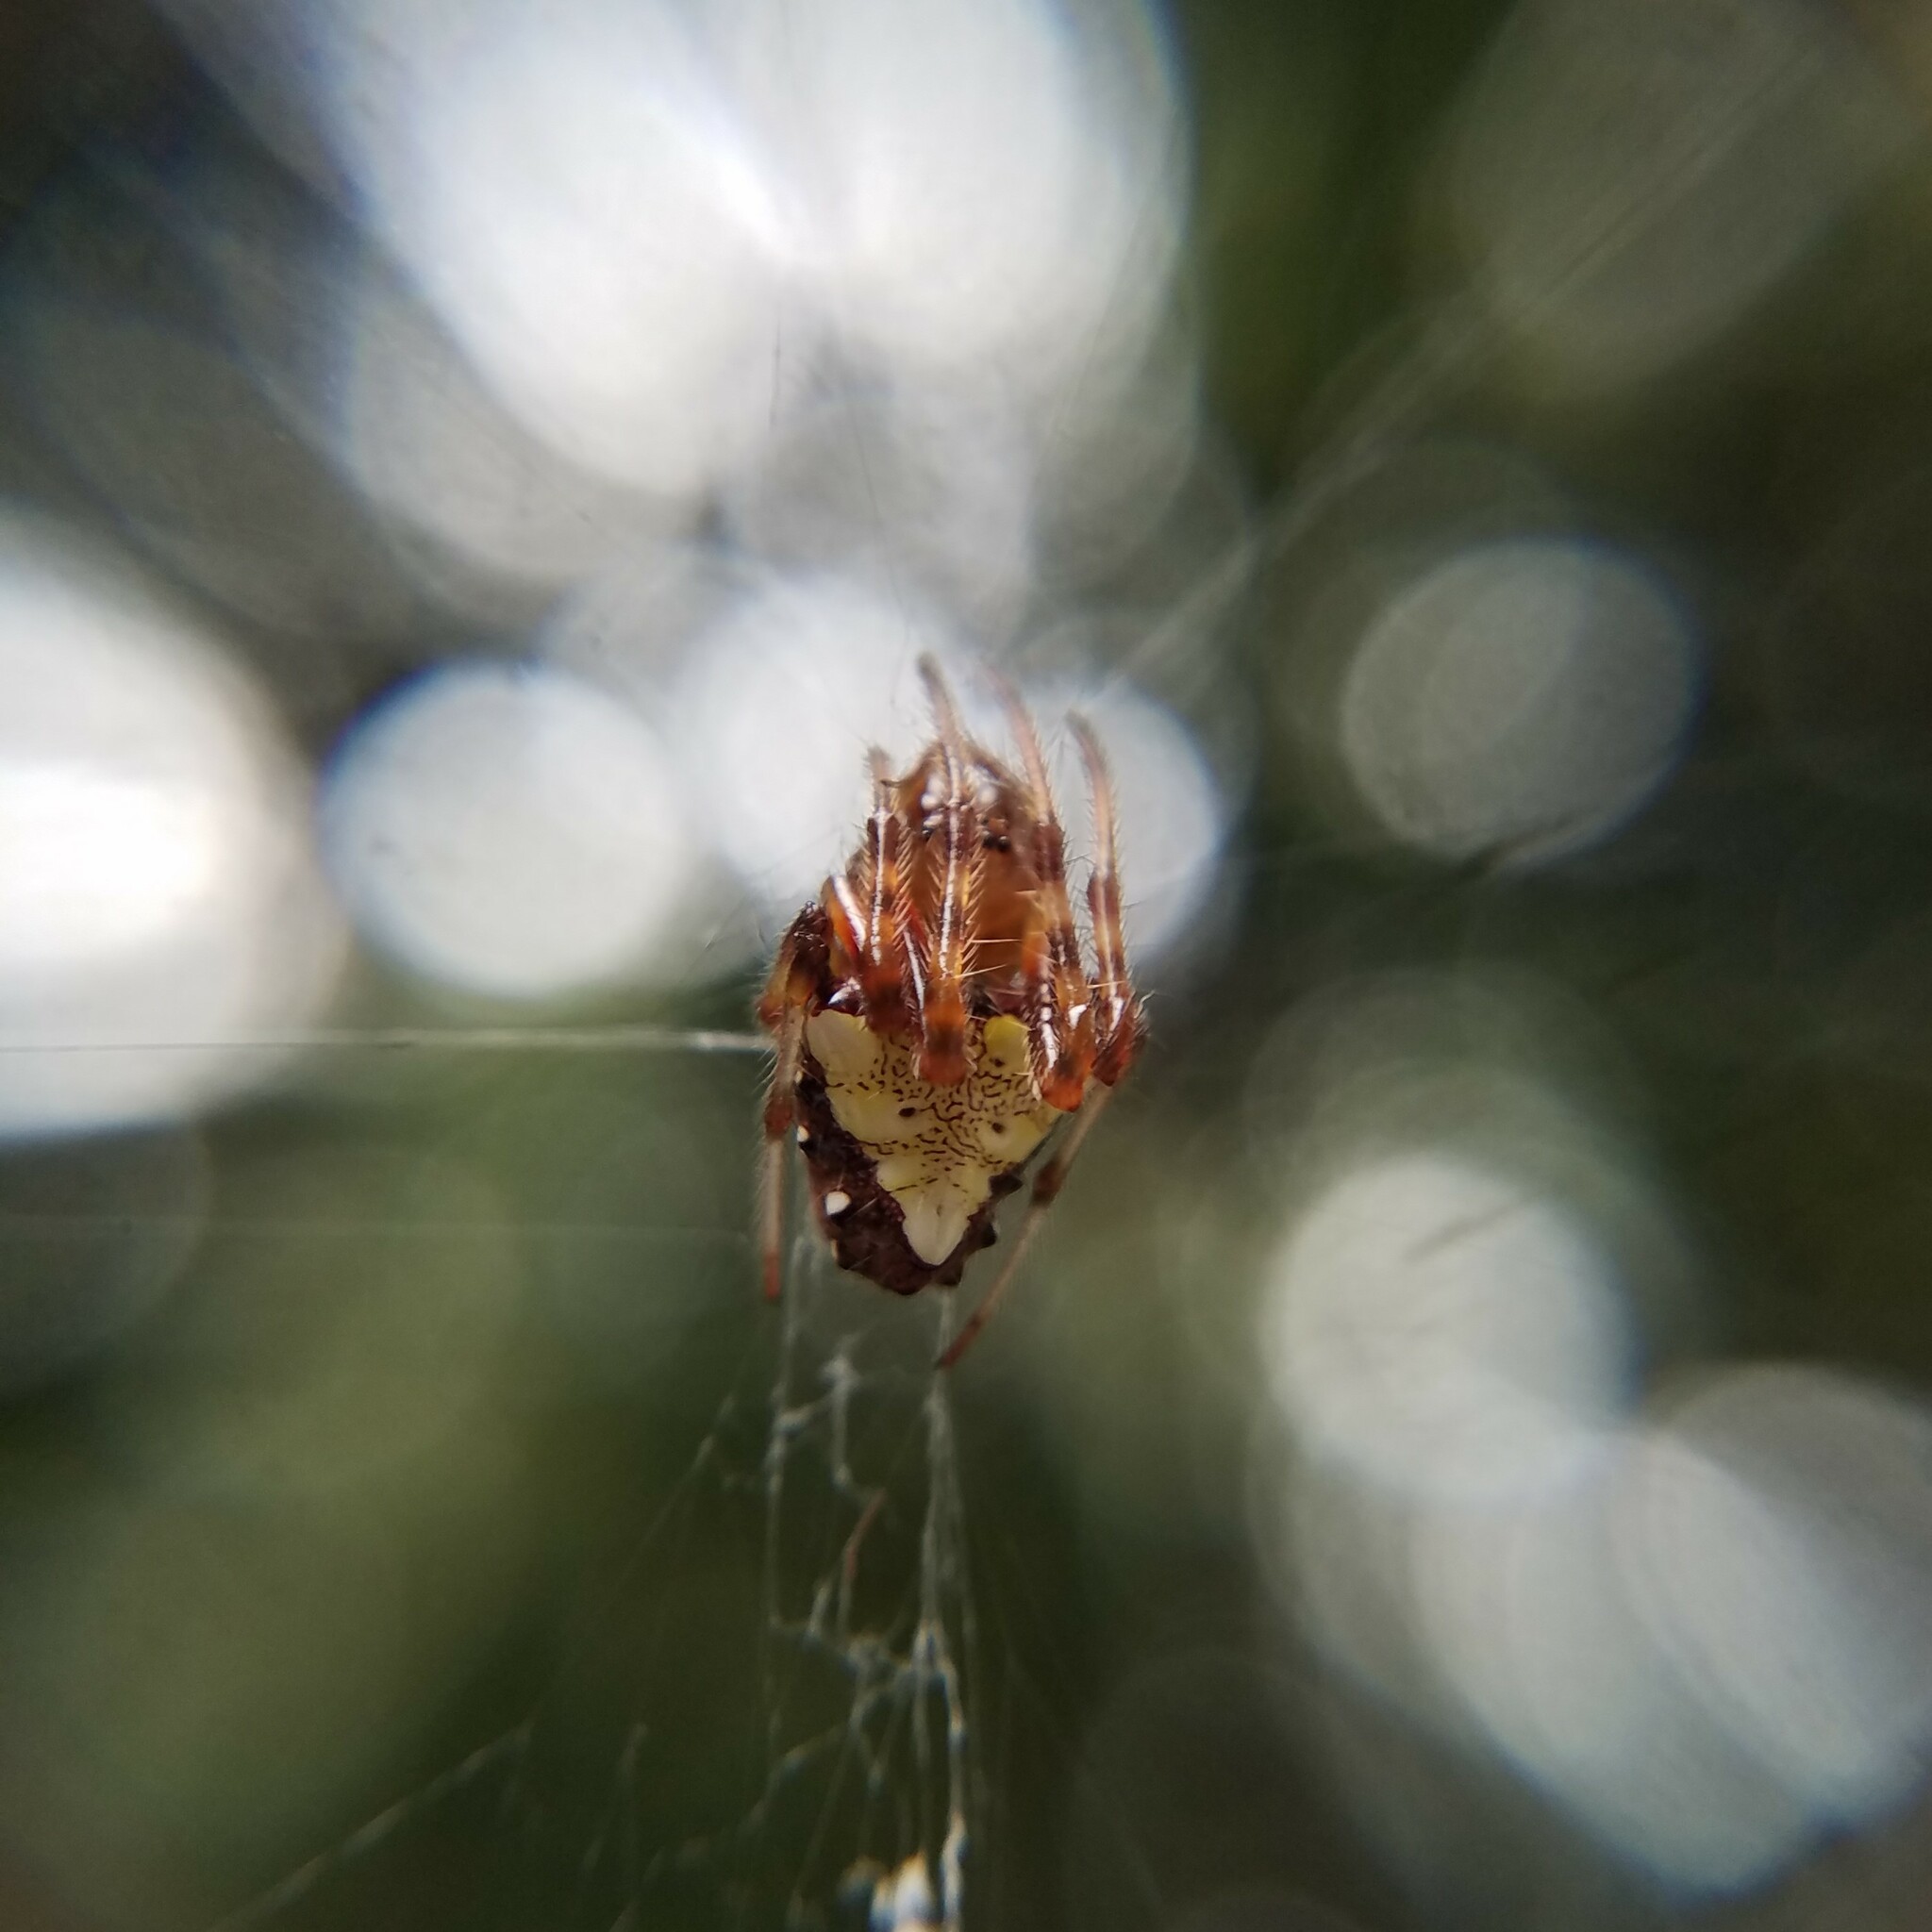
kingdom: Animalia
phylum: Arthropoda
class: Arachnida
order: Araneae
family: Araneidae
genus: Verrucosa
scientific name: Verrucosa arenata
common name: Orb weavers
